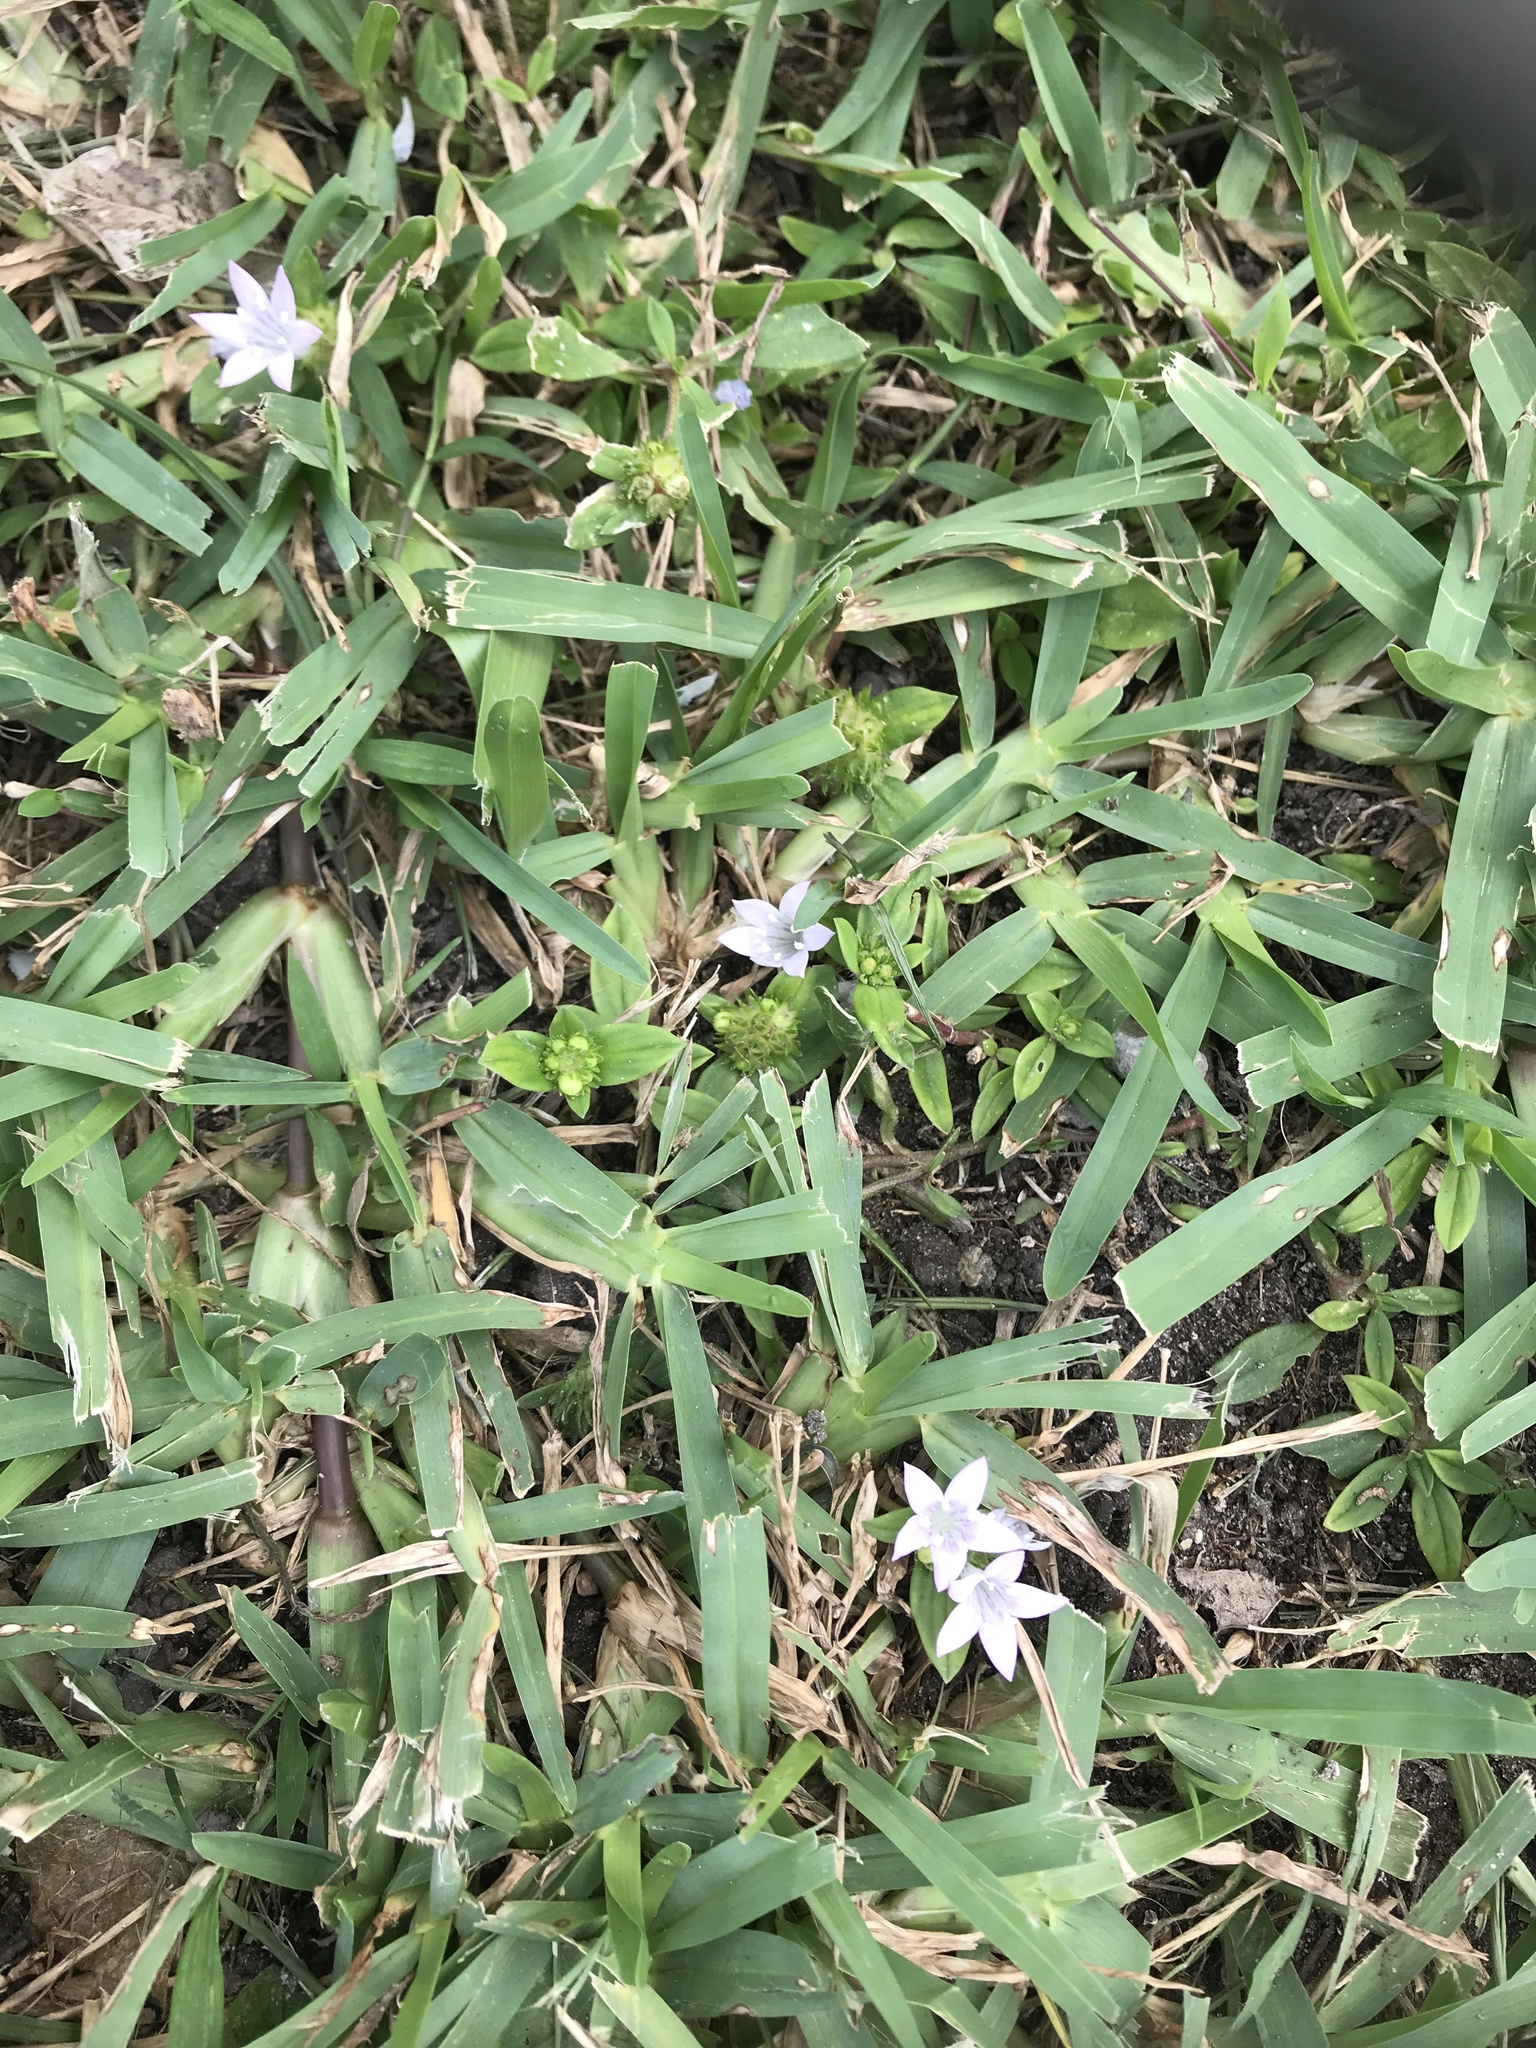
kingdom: Plantae
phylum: Tracheophyta
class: Magnoliopsida
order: Gentianales
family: Rubiaceae
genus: Richardia
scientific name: Richardia grandiflora
